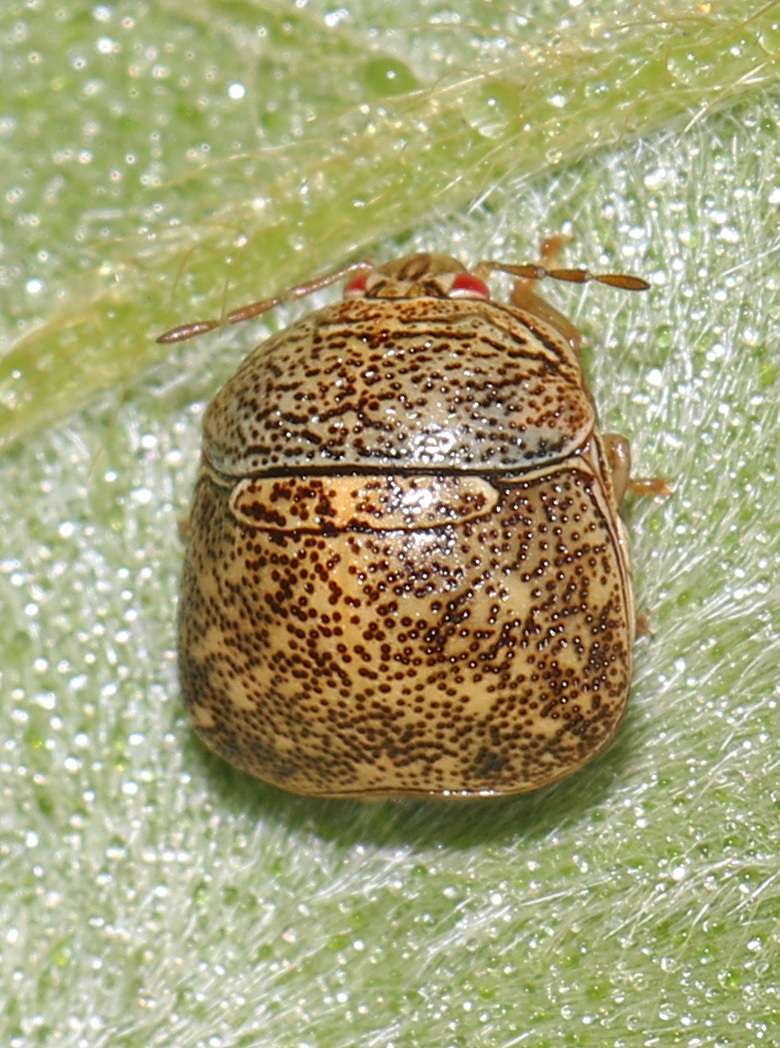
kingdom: Animalia
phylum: Arthropoda
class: Insecta
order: Hemiptera
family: Plataspidae
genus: Megacopta
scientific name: Megacopta cribraria
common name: Bean plataspid
